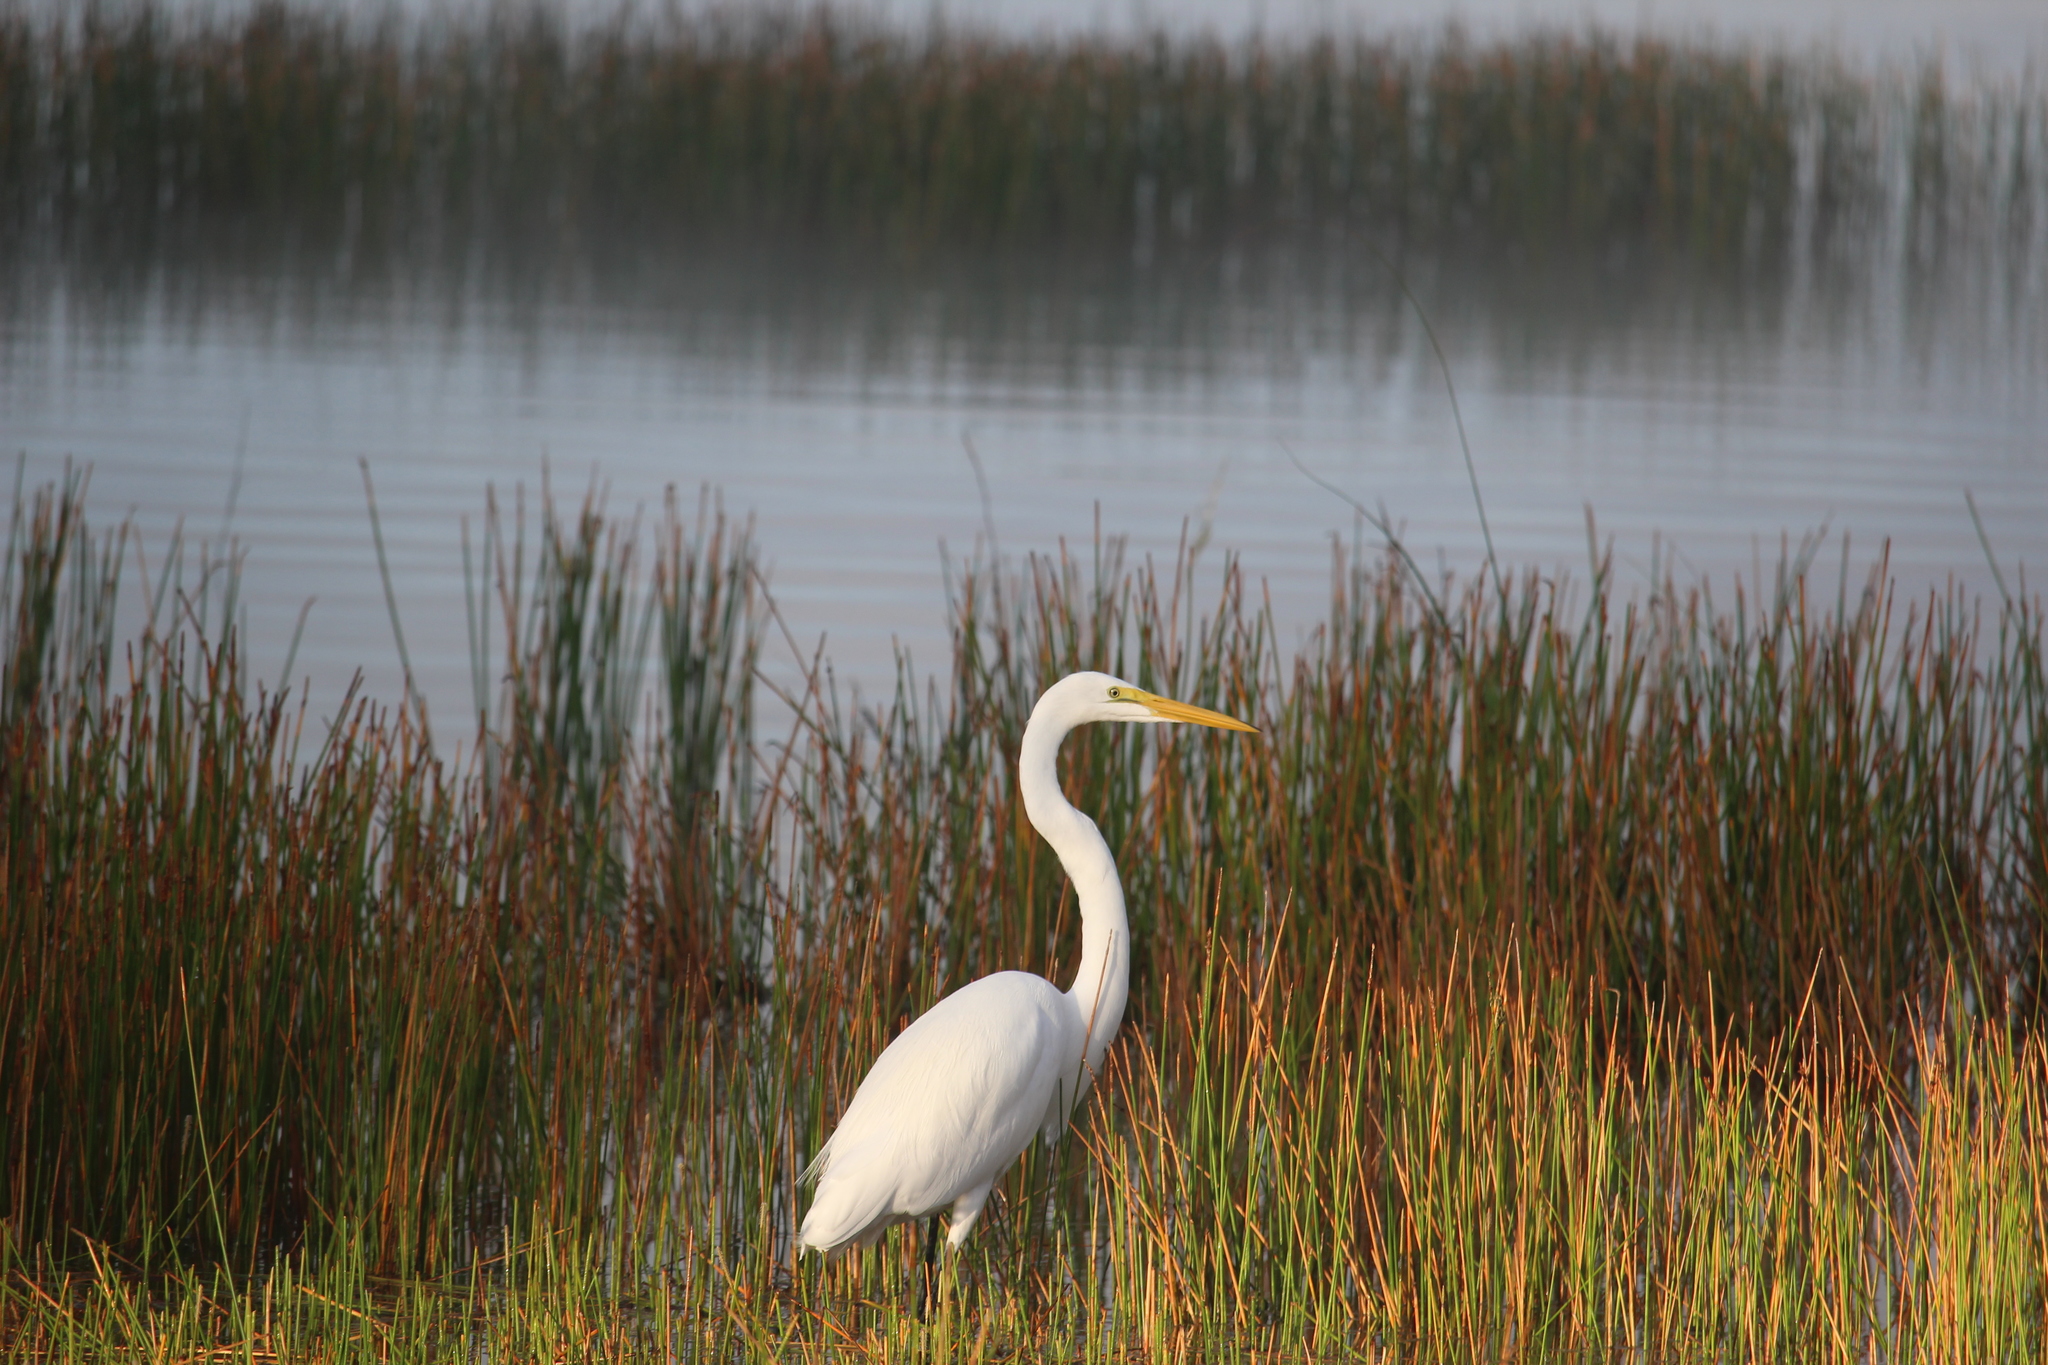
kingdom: Animalia
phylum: Chordata
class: Aves
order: Pelecaniformes
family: Ardeidae
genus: Ardea
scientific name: Ardea alba
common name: Great egret
